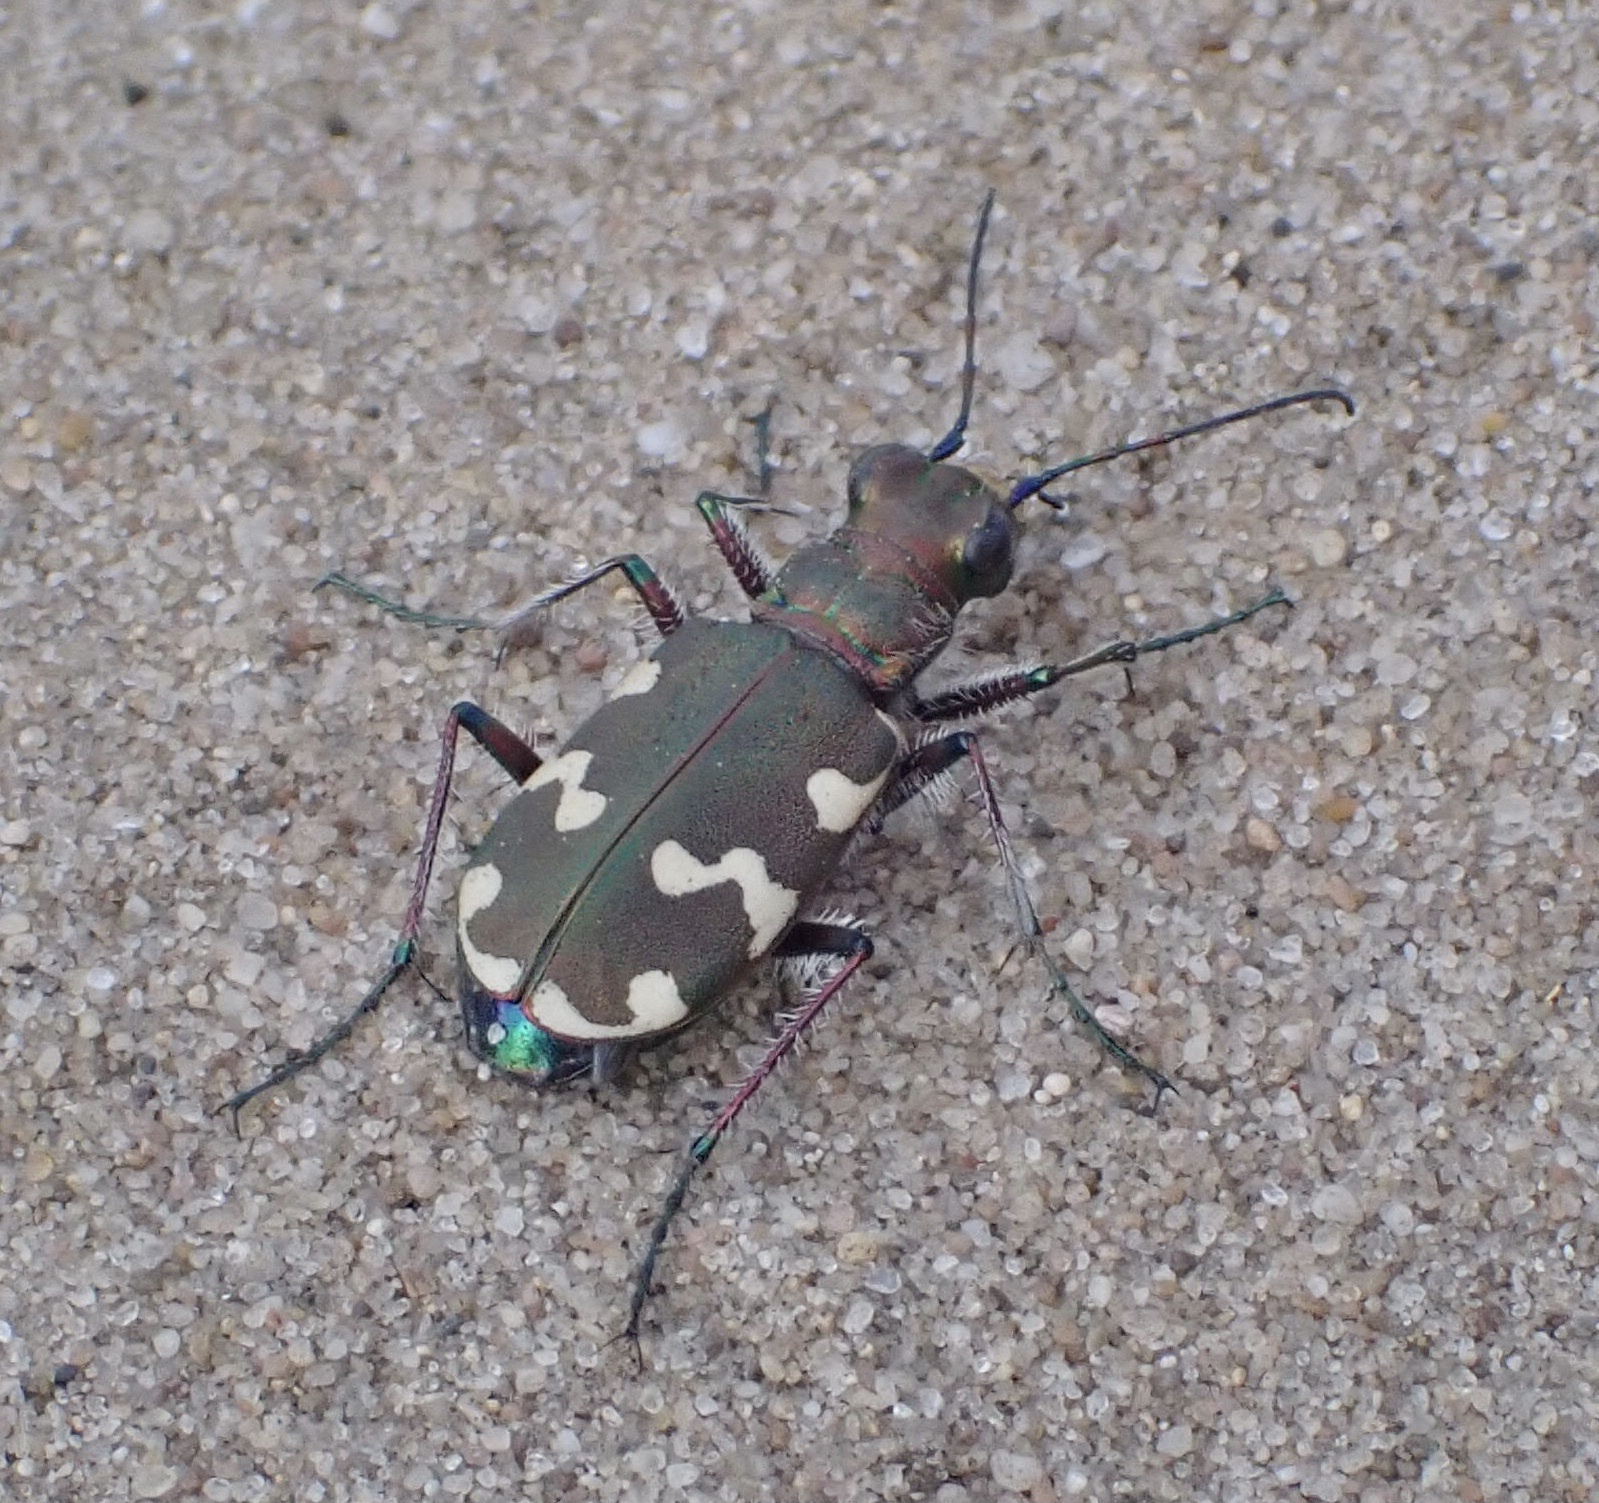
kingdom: Animalia
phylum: Arthropoda
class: Insecta
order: Coleoptera
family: Carabidae
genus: Cicindela
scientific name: Cicindela hybrida
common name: Northern dune tiger beetle
